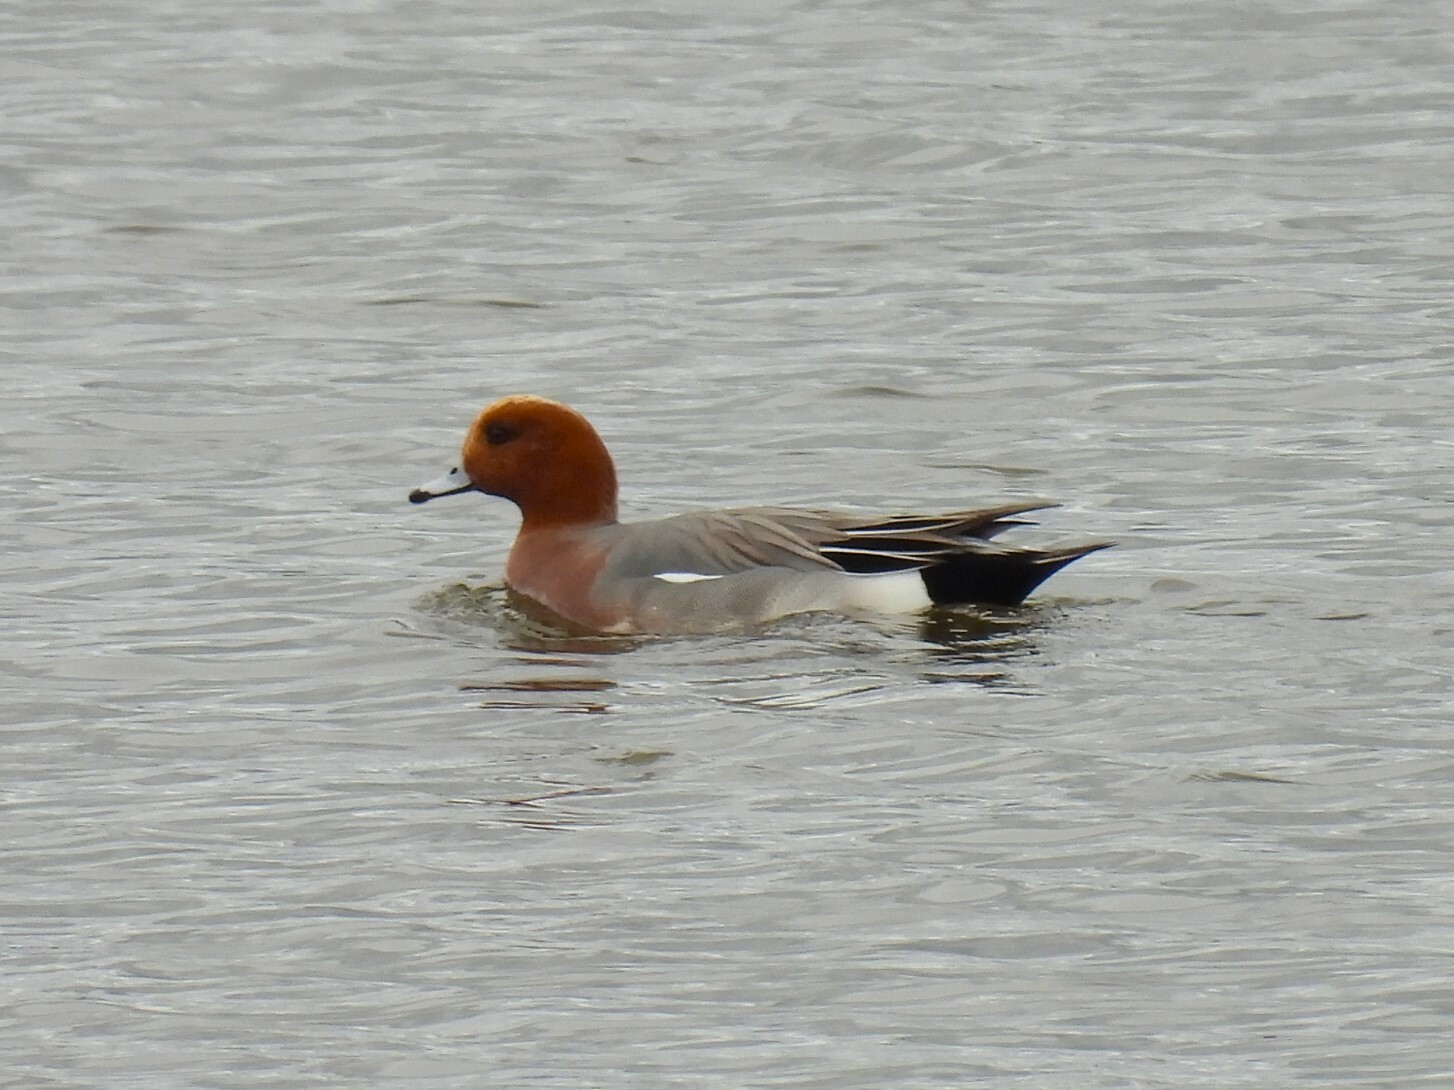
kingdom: Animalia
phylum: Chordata
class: Aves
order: Anseriformes
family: Anatidae
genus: Mareca
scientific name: Mareca penelope
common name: Eurasian wigeon
